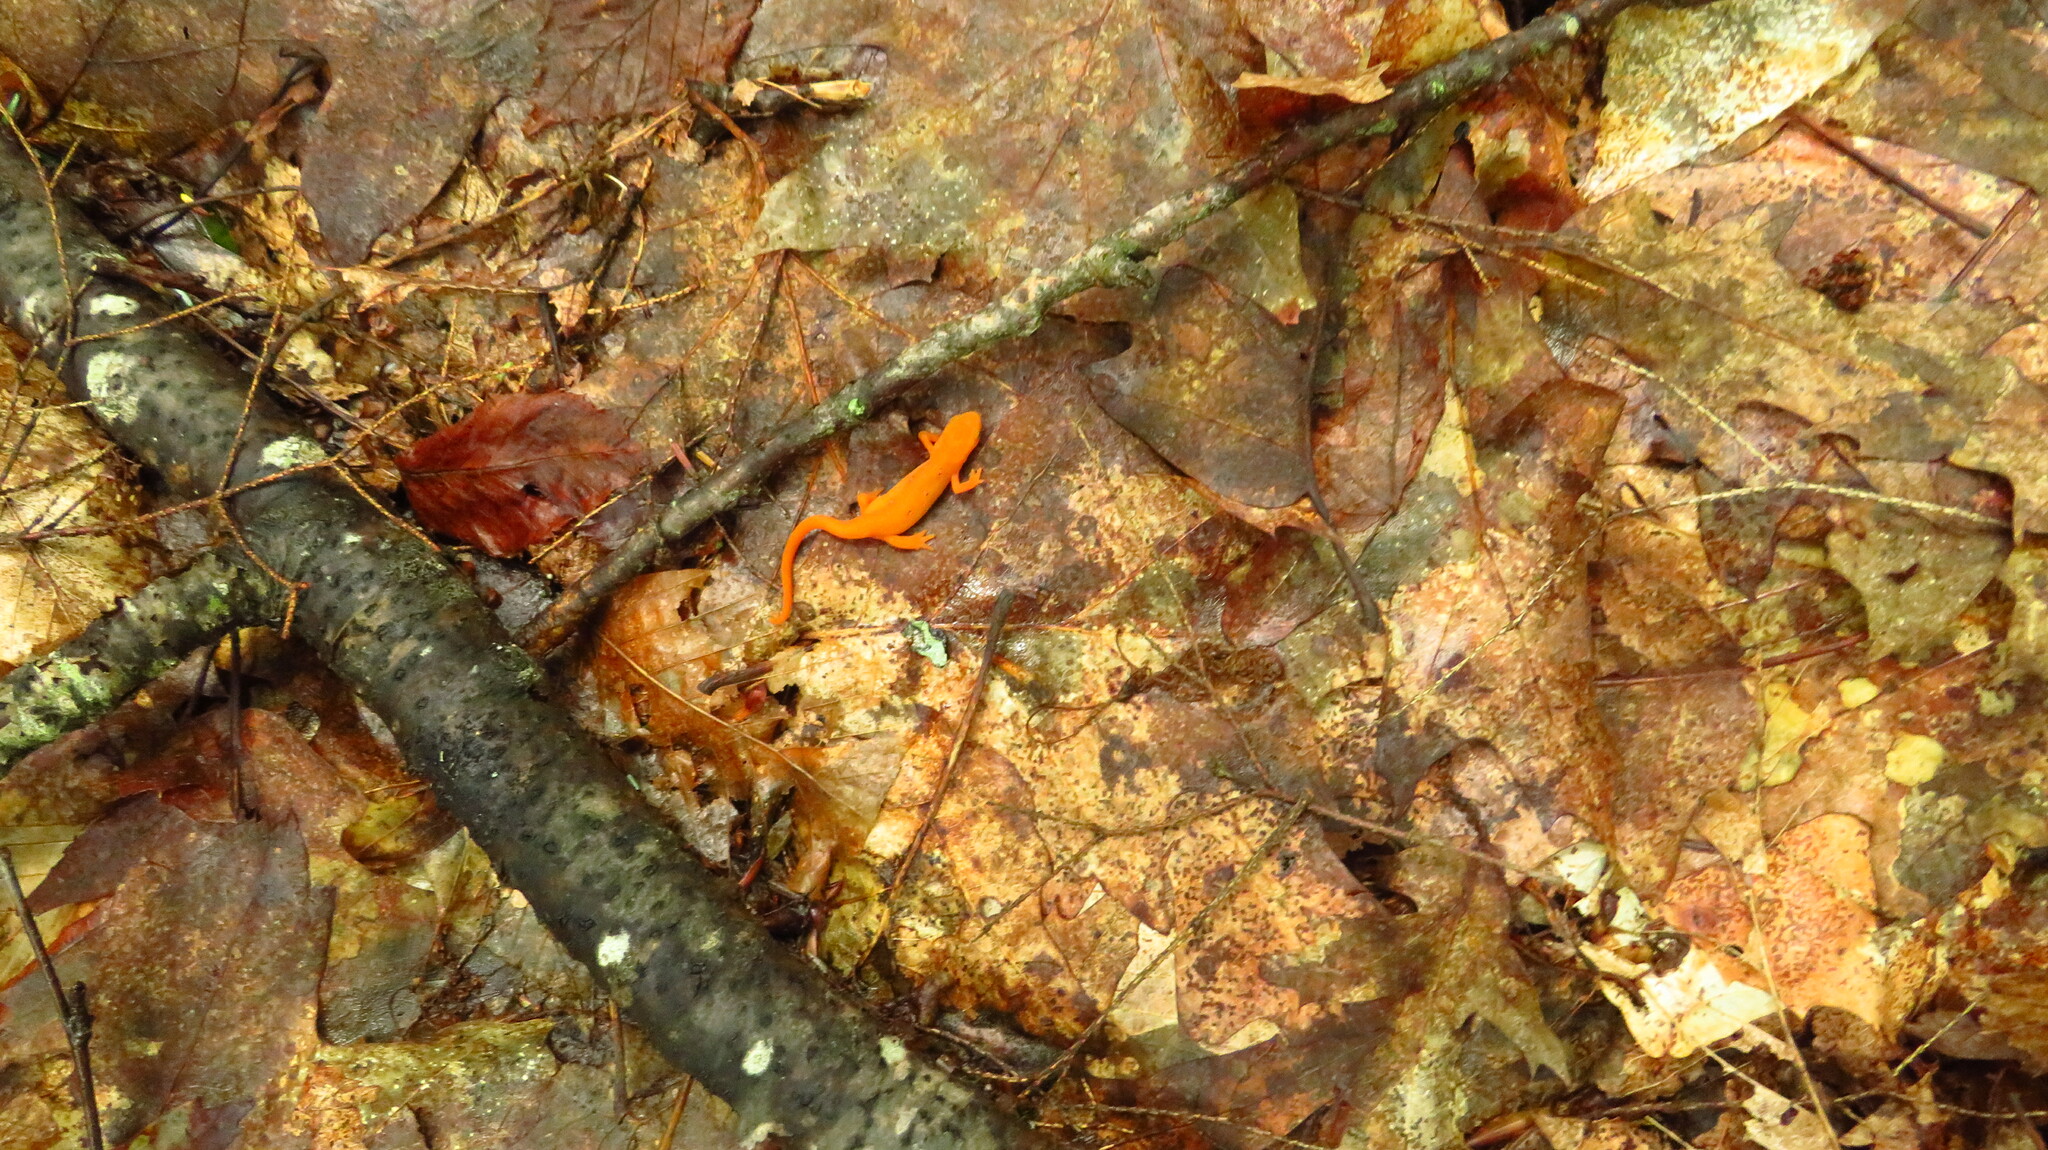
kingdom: Animalia
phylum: Chordata
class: Amphibia
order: Caudata
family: Salamandridae
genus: Notophthalmus
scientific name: Notophthalmus viridescens
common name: Eastern newt
